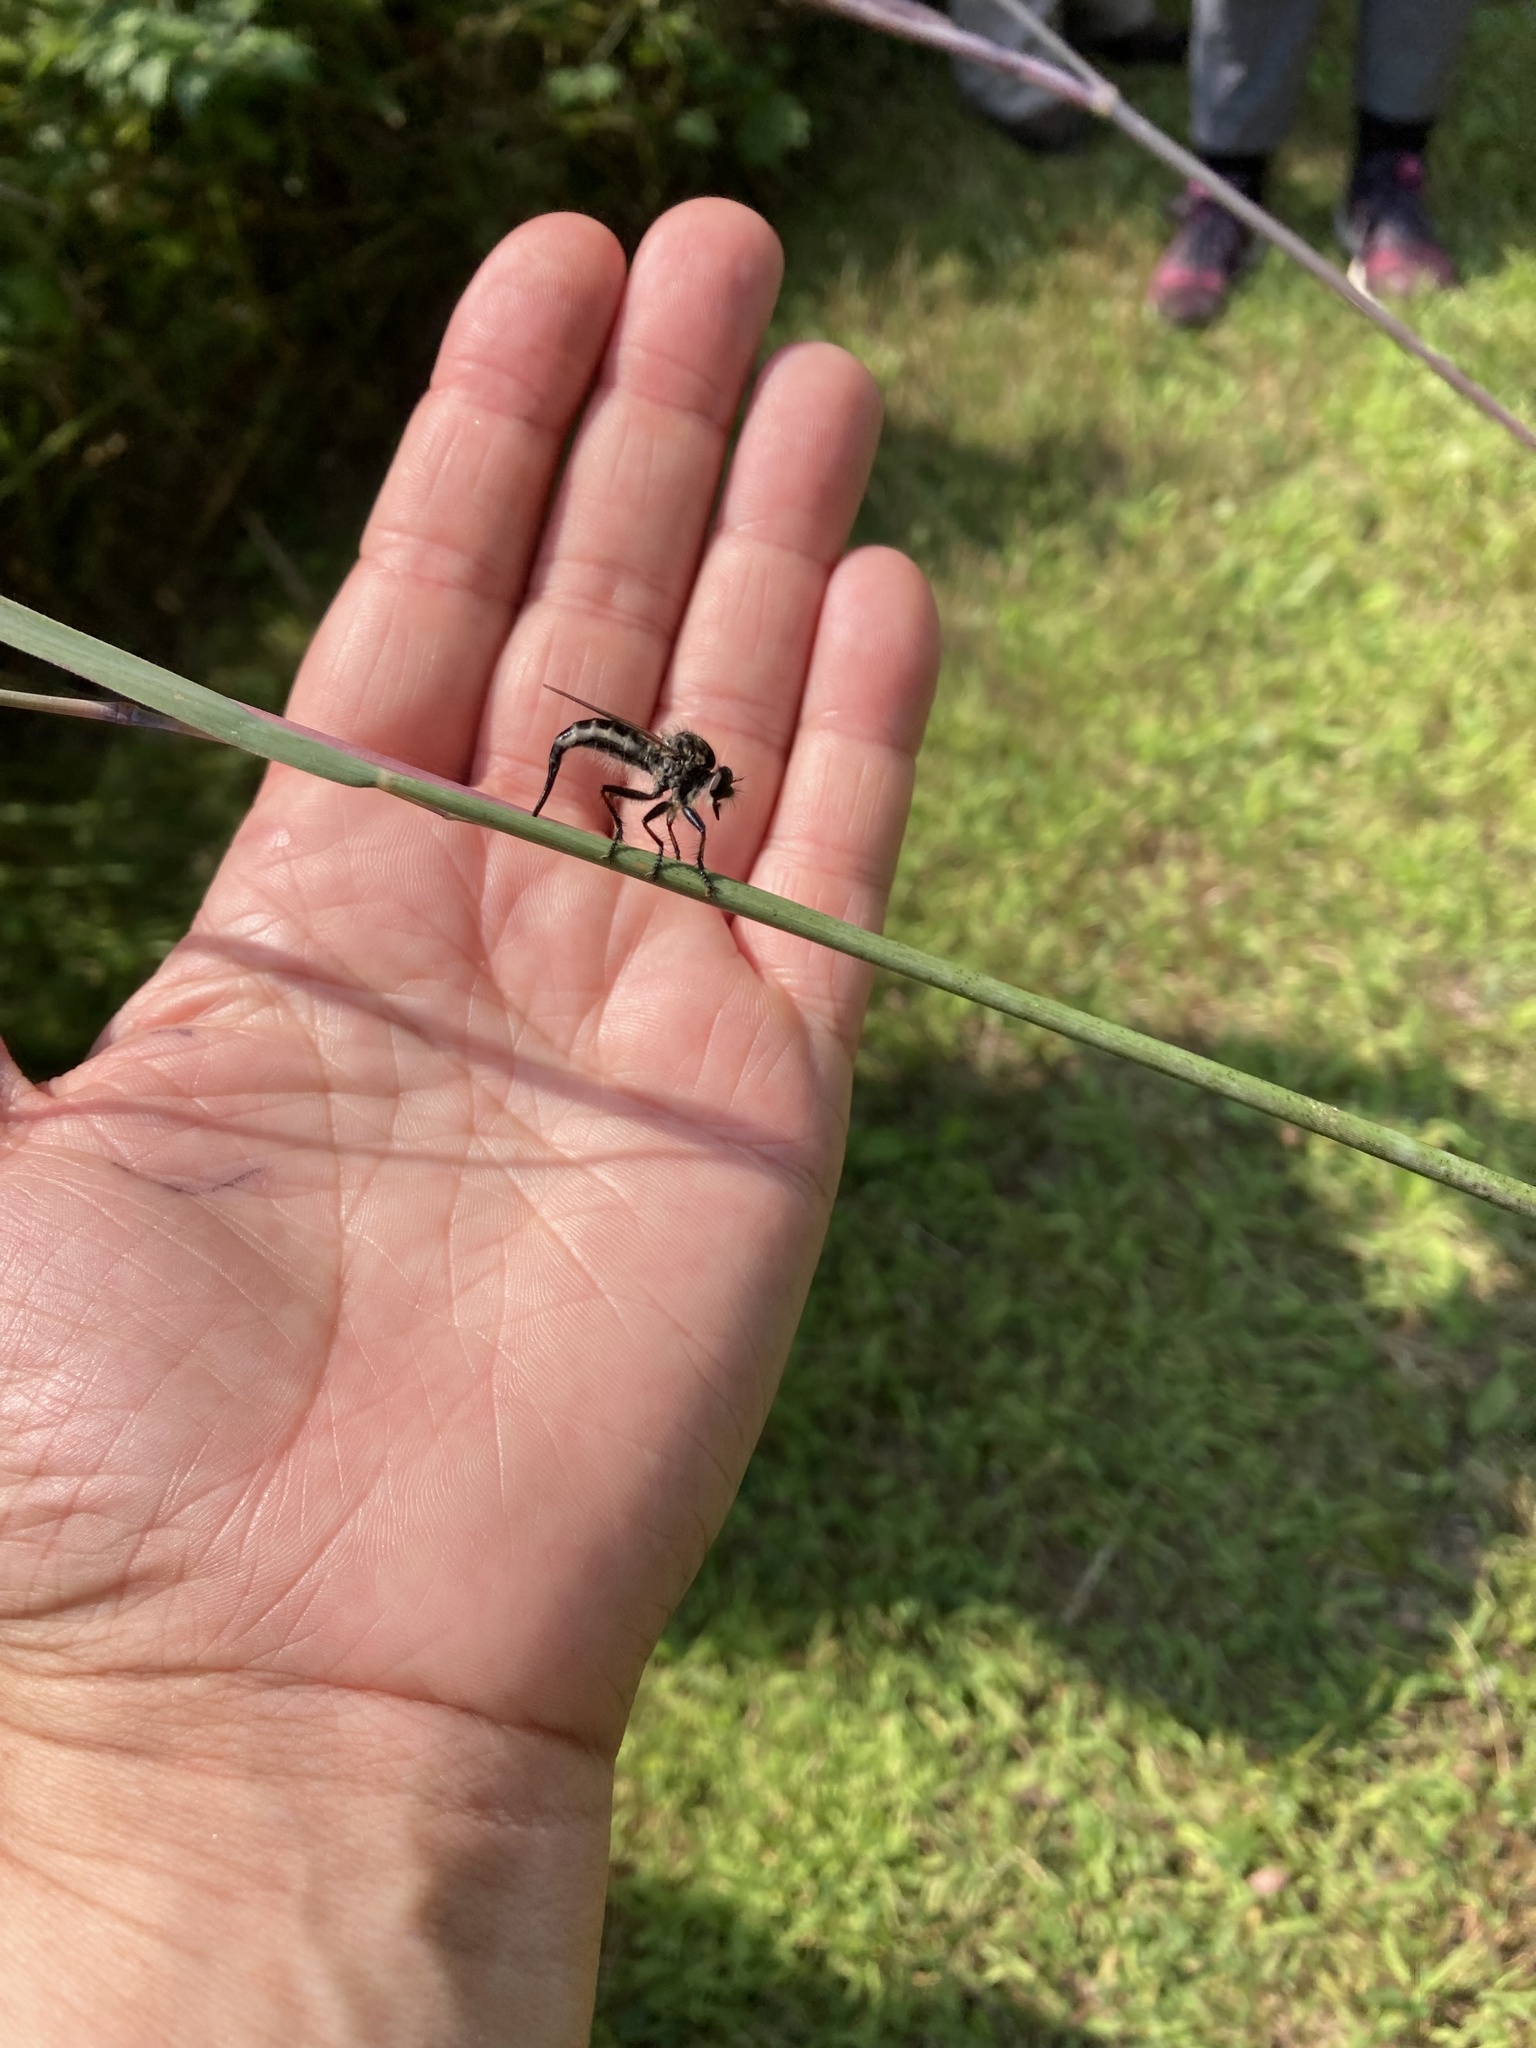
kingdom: Animalia
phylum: Arthropoda
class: Insecta
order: Diptera
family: Asilidae
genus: Efferia
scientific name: Efferia aestuans
